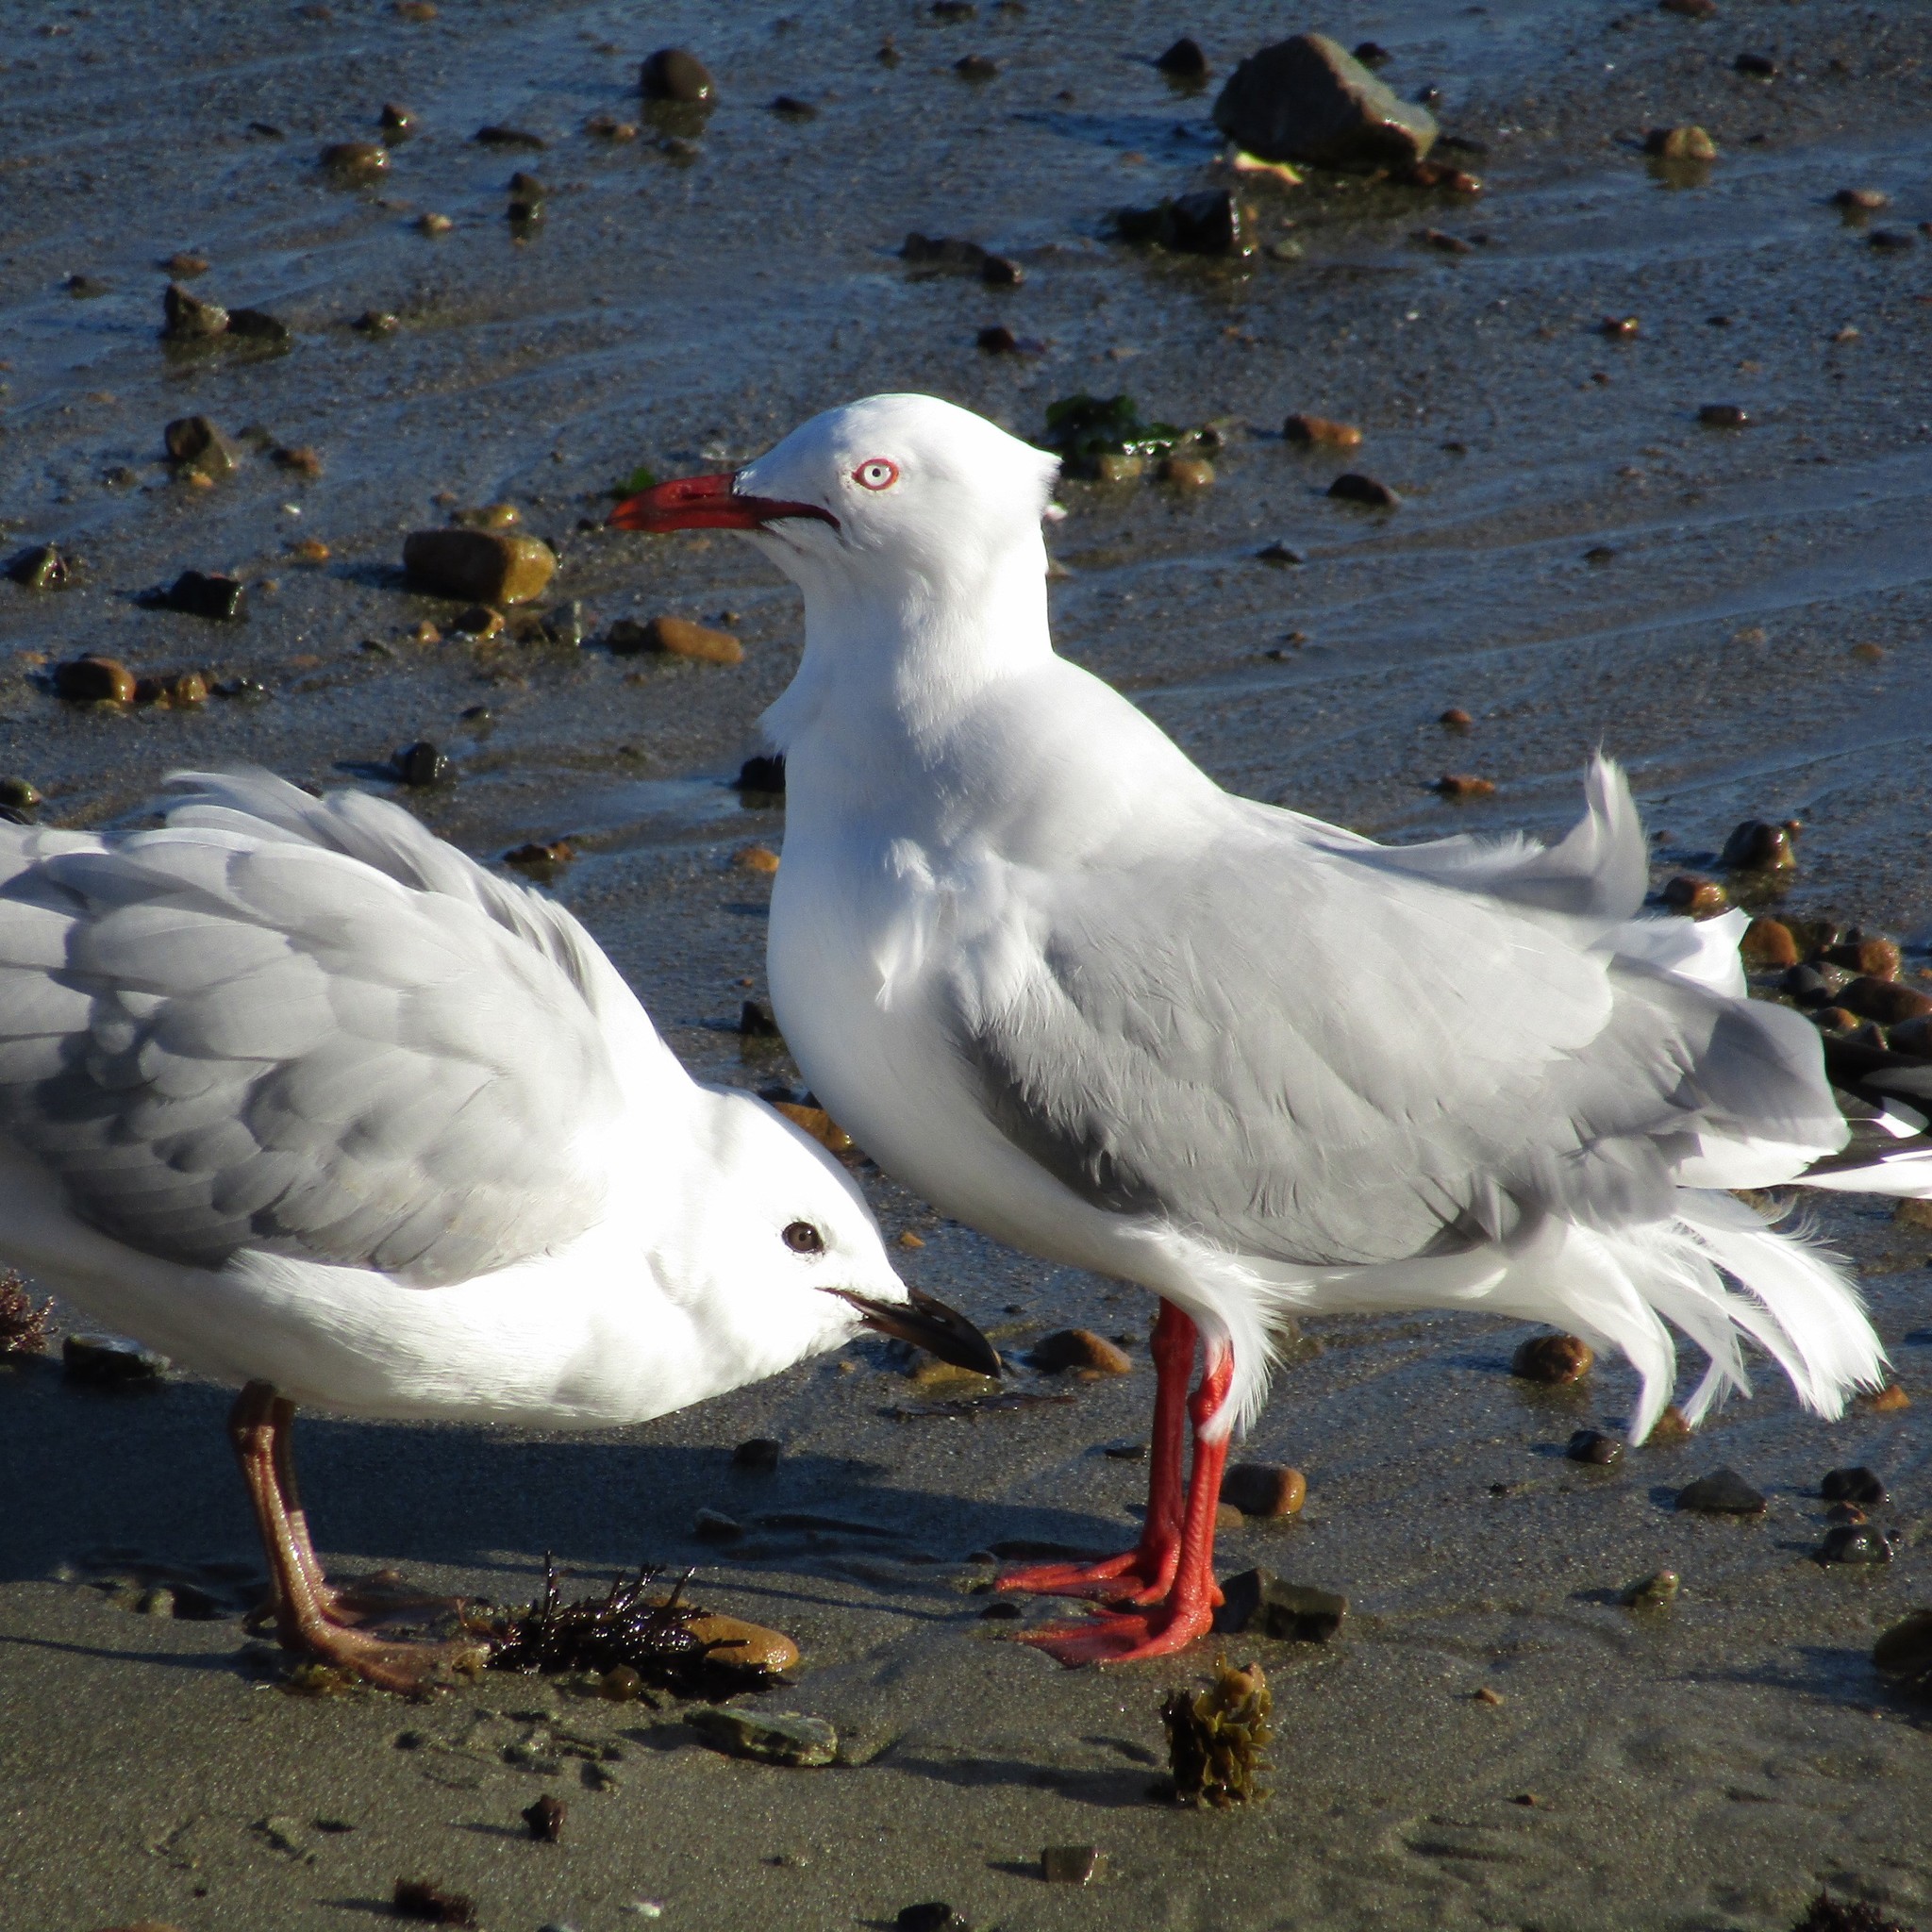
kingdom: Animalia
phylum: Chordata
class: Aves
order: Charadriiformes
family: Laridae
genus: Chroicocephalus
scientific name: Chroicocephalus novaehollandiae
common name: Silver gull
